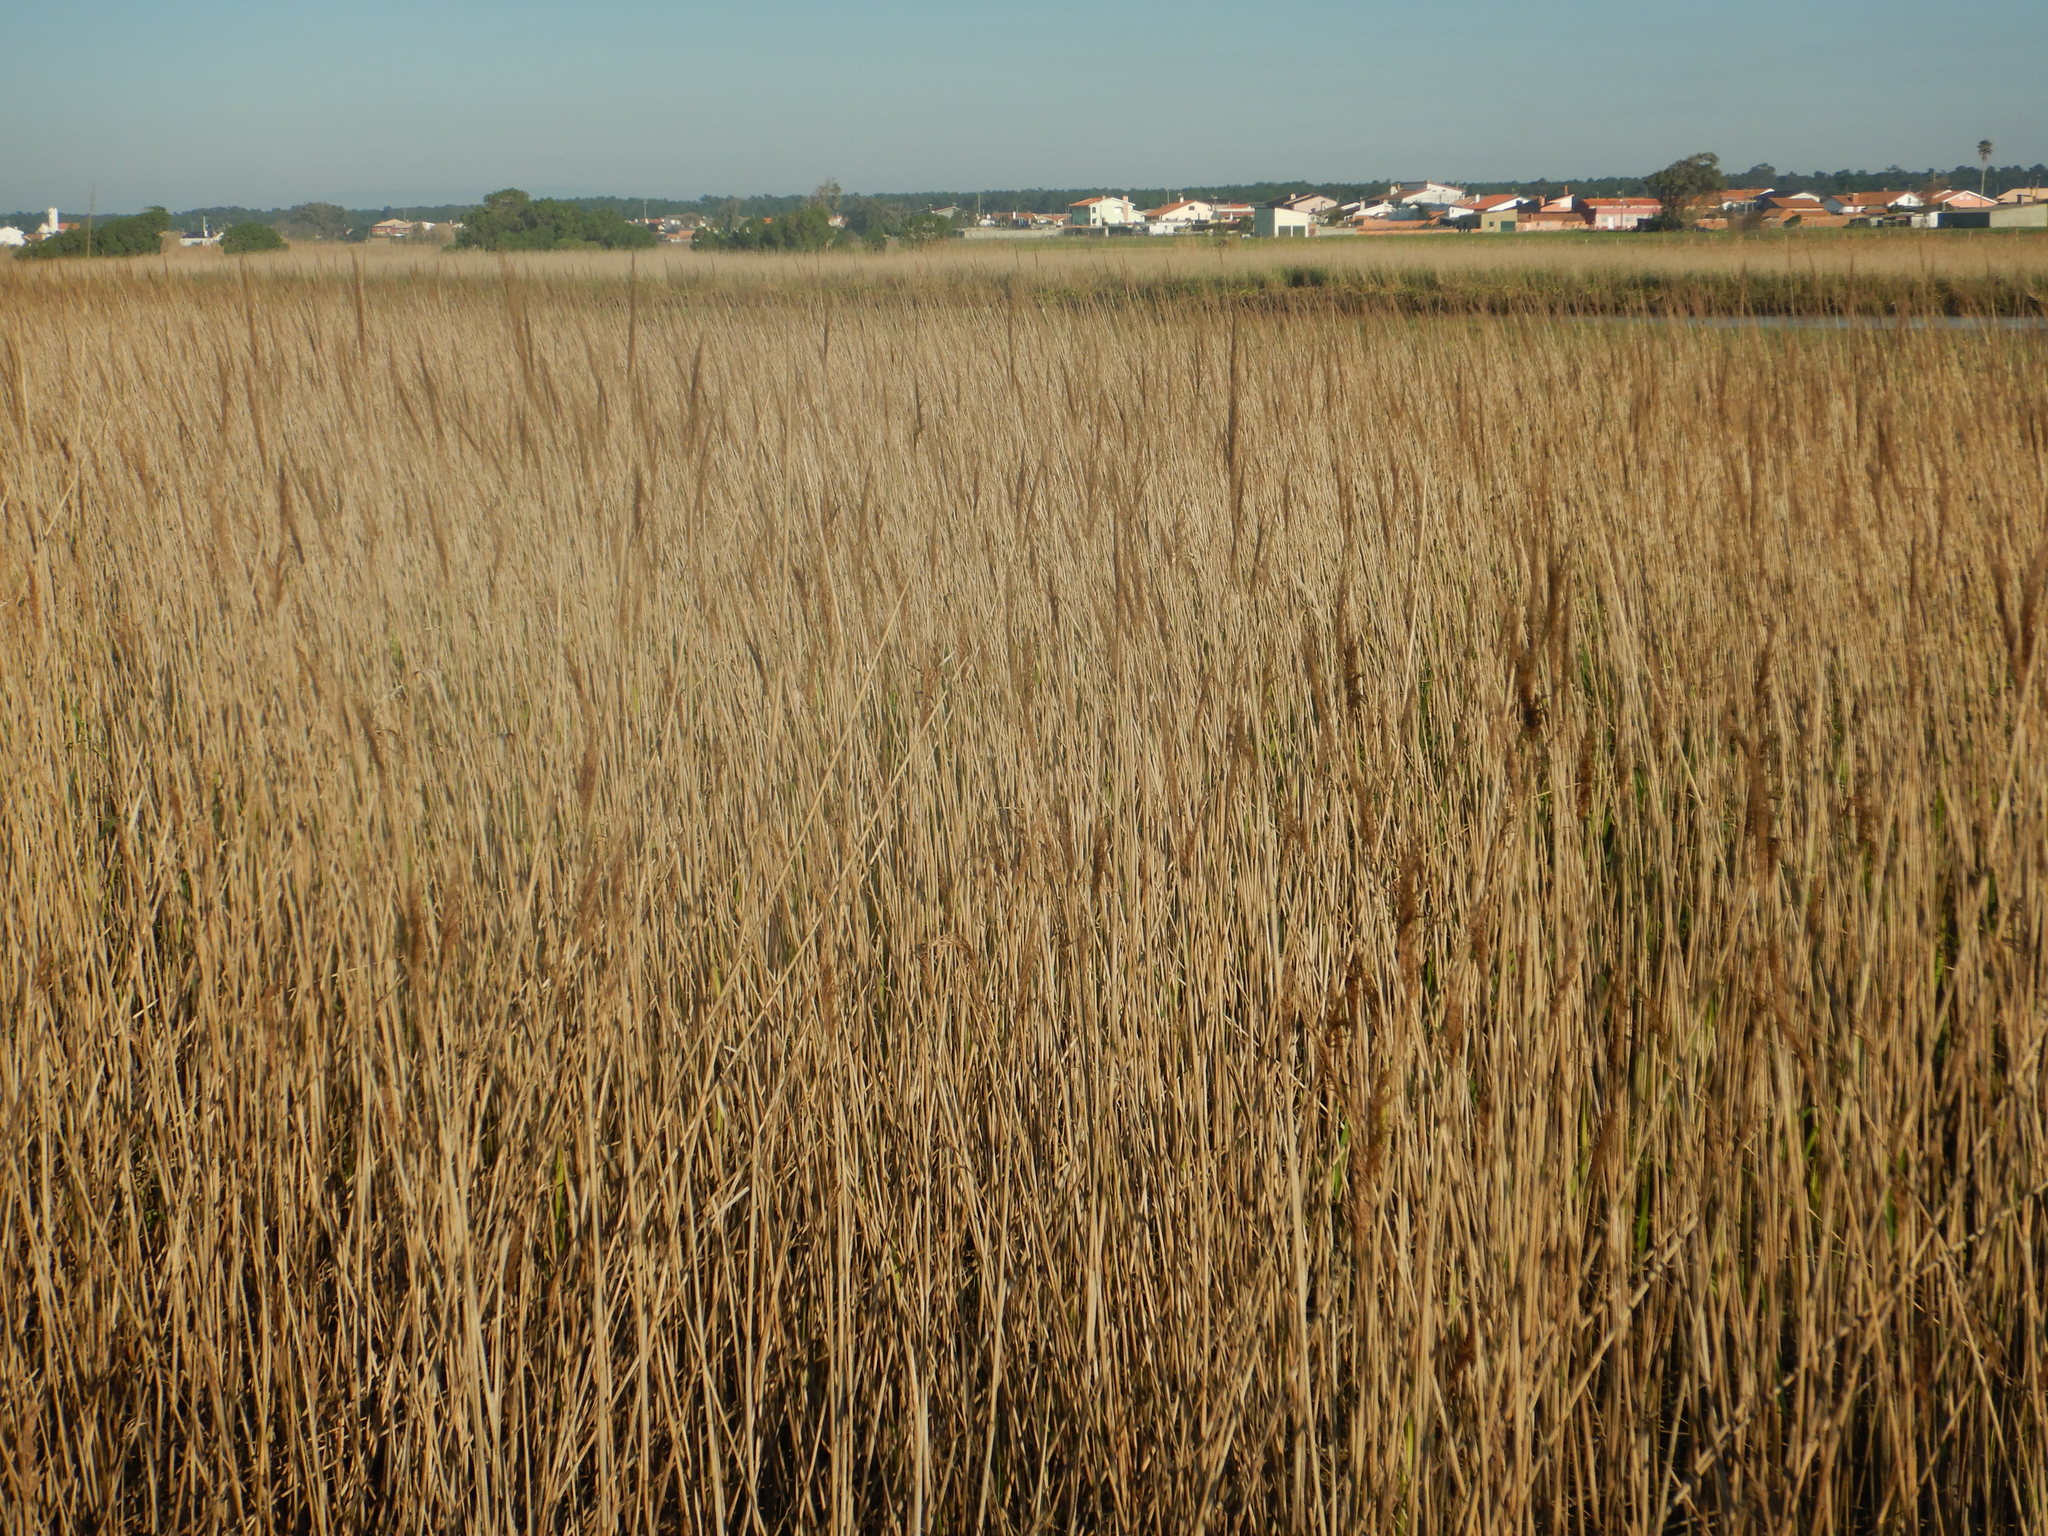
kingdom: Plantae
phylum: Tracheophyta
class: Liliopsida
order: Poales
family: Poaceae
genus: Phragmites
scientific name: Phragmites australis
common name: Common reed
